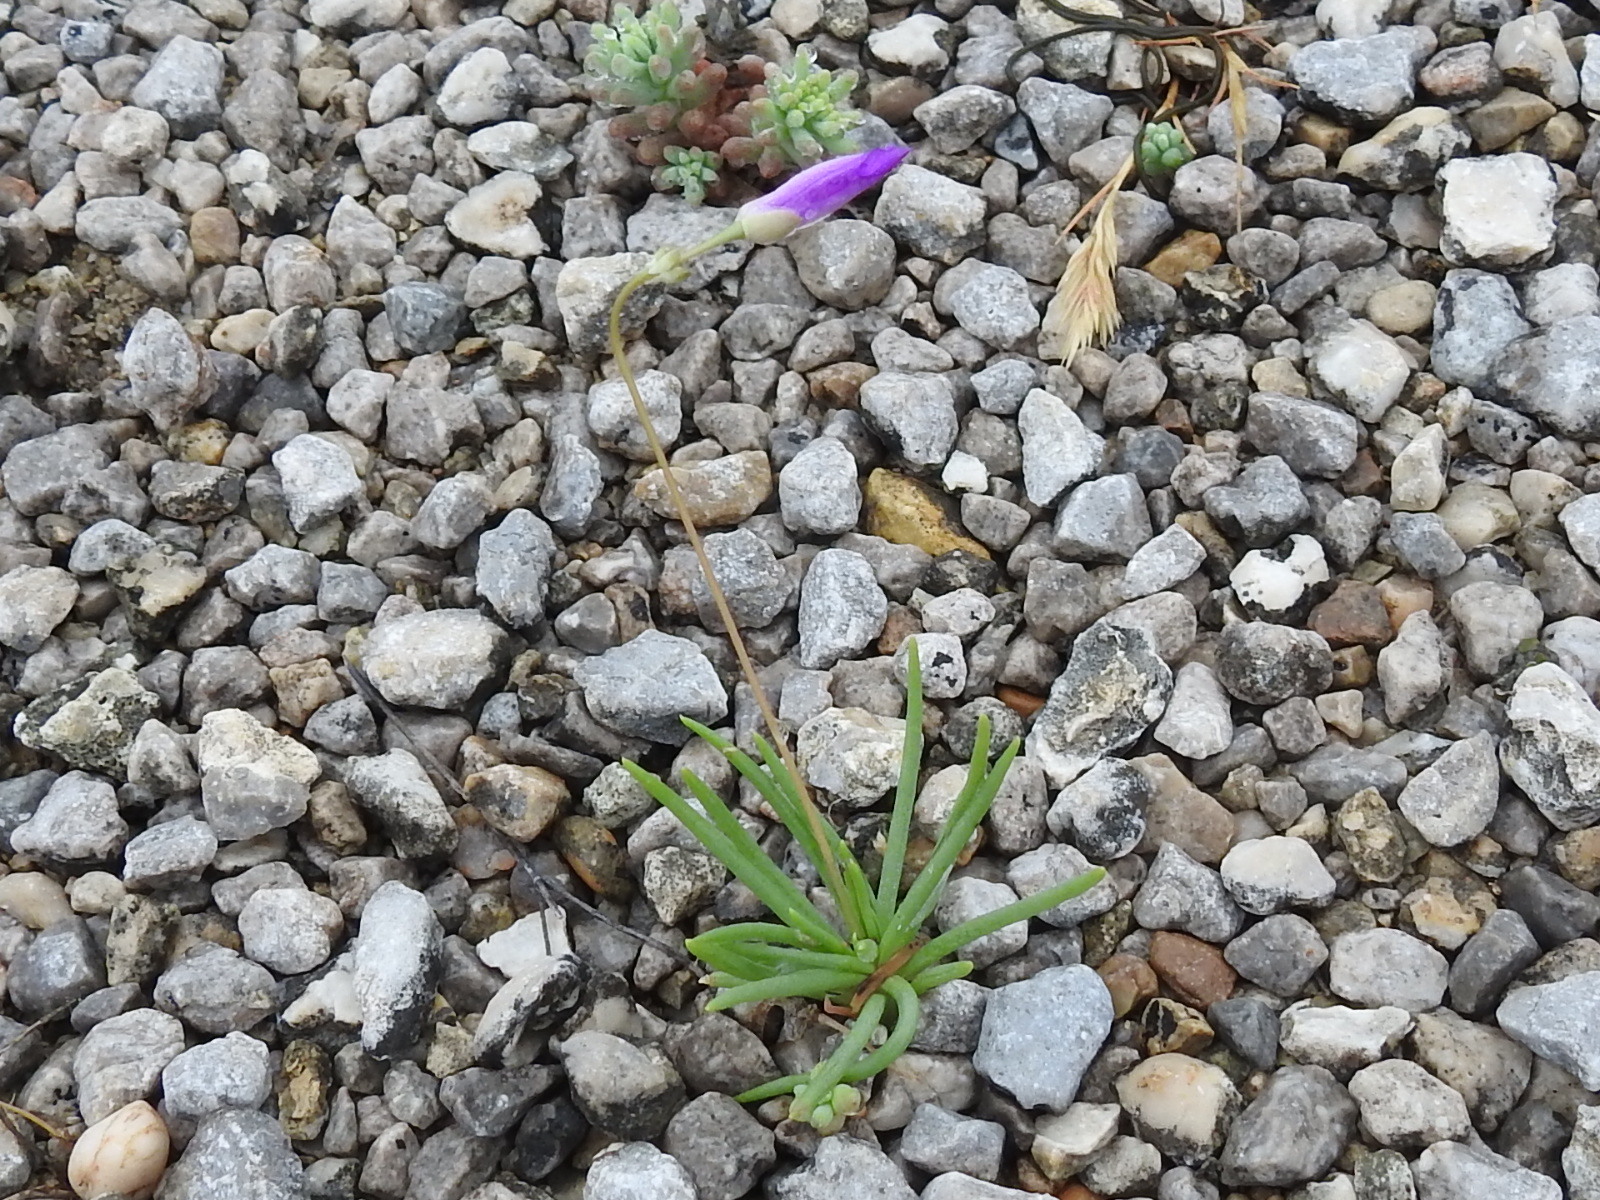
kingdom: Plantae
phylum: Tracheophyta
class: Magnoliopsida
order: Caryophyllales
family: Montiaceae
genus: Phemeranthus
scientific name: Phemeranthus calcaricus
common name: Limestone fameflower
